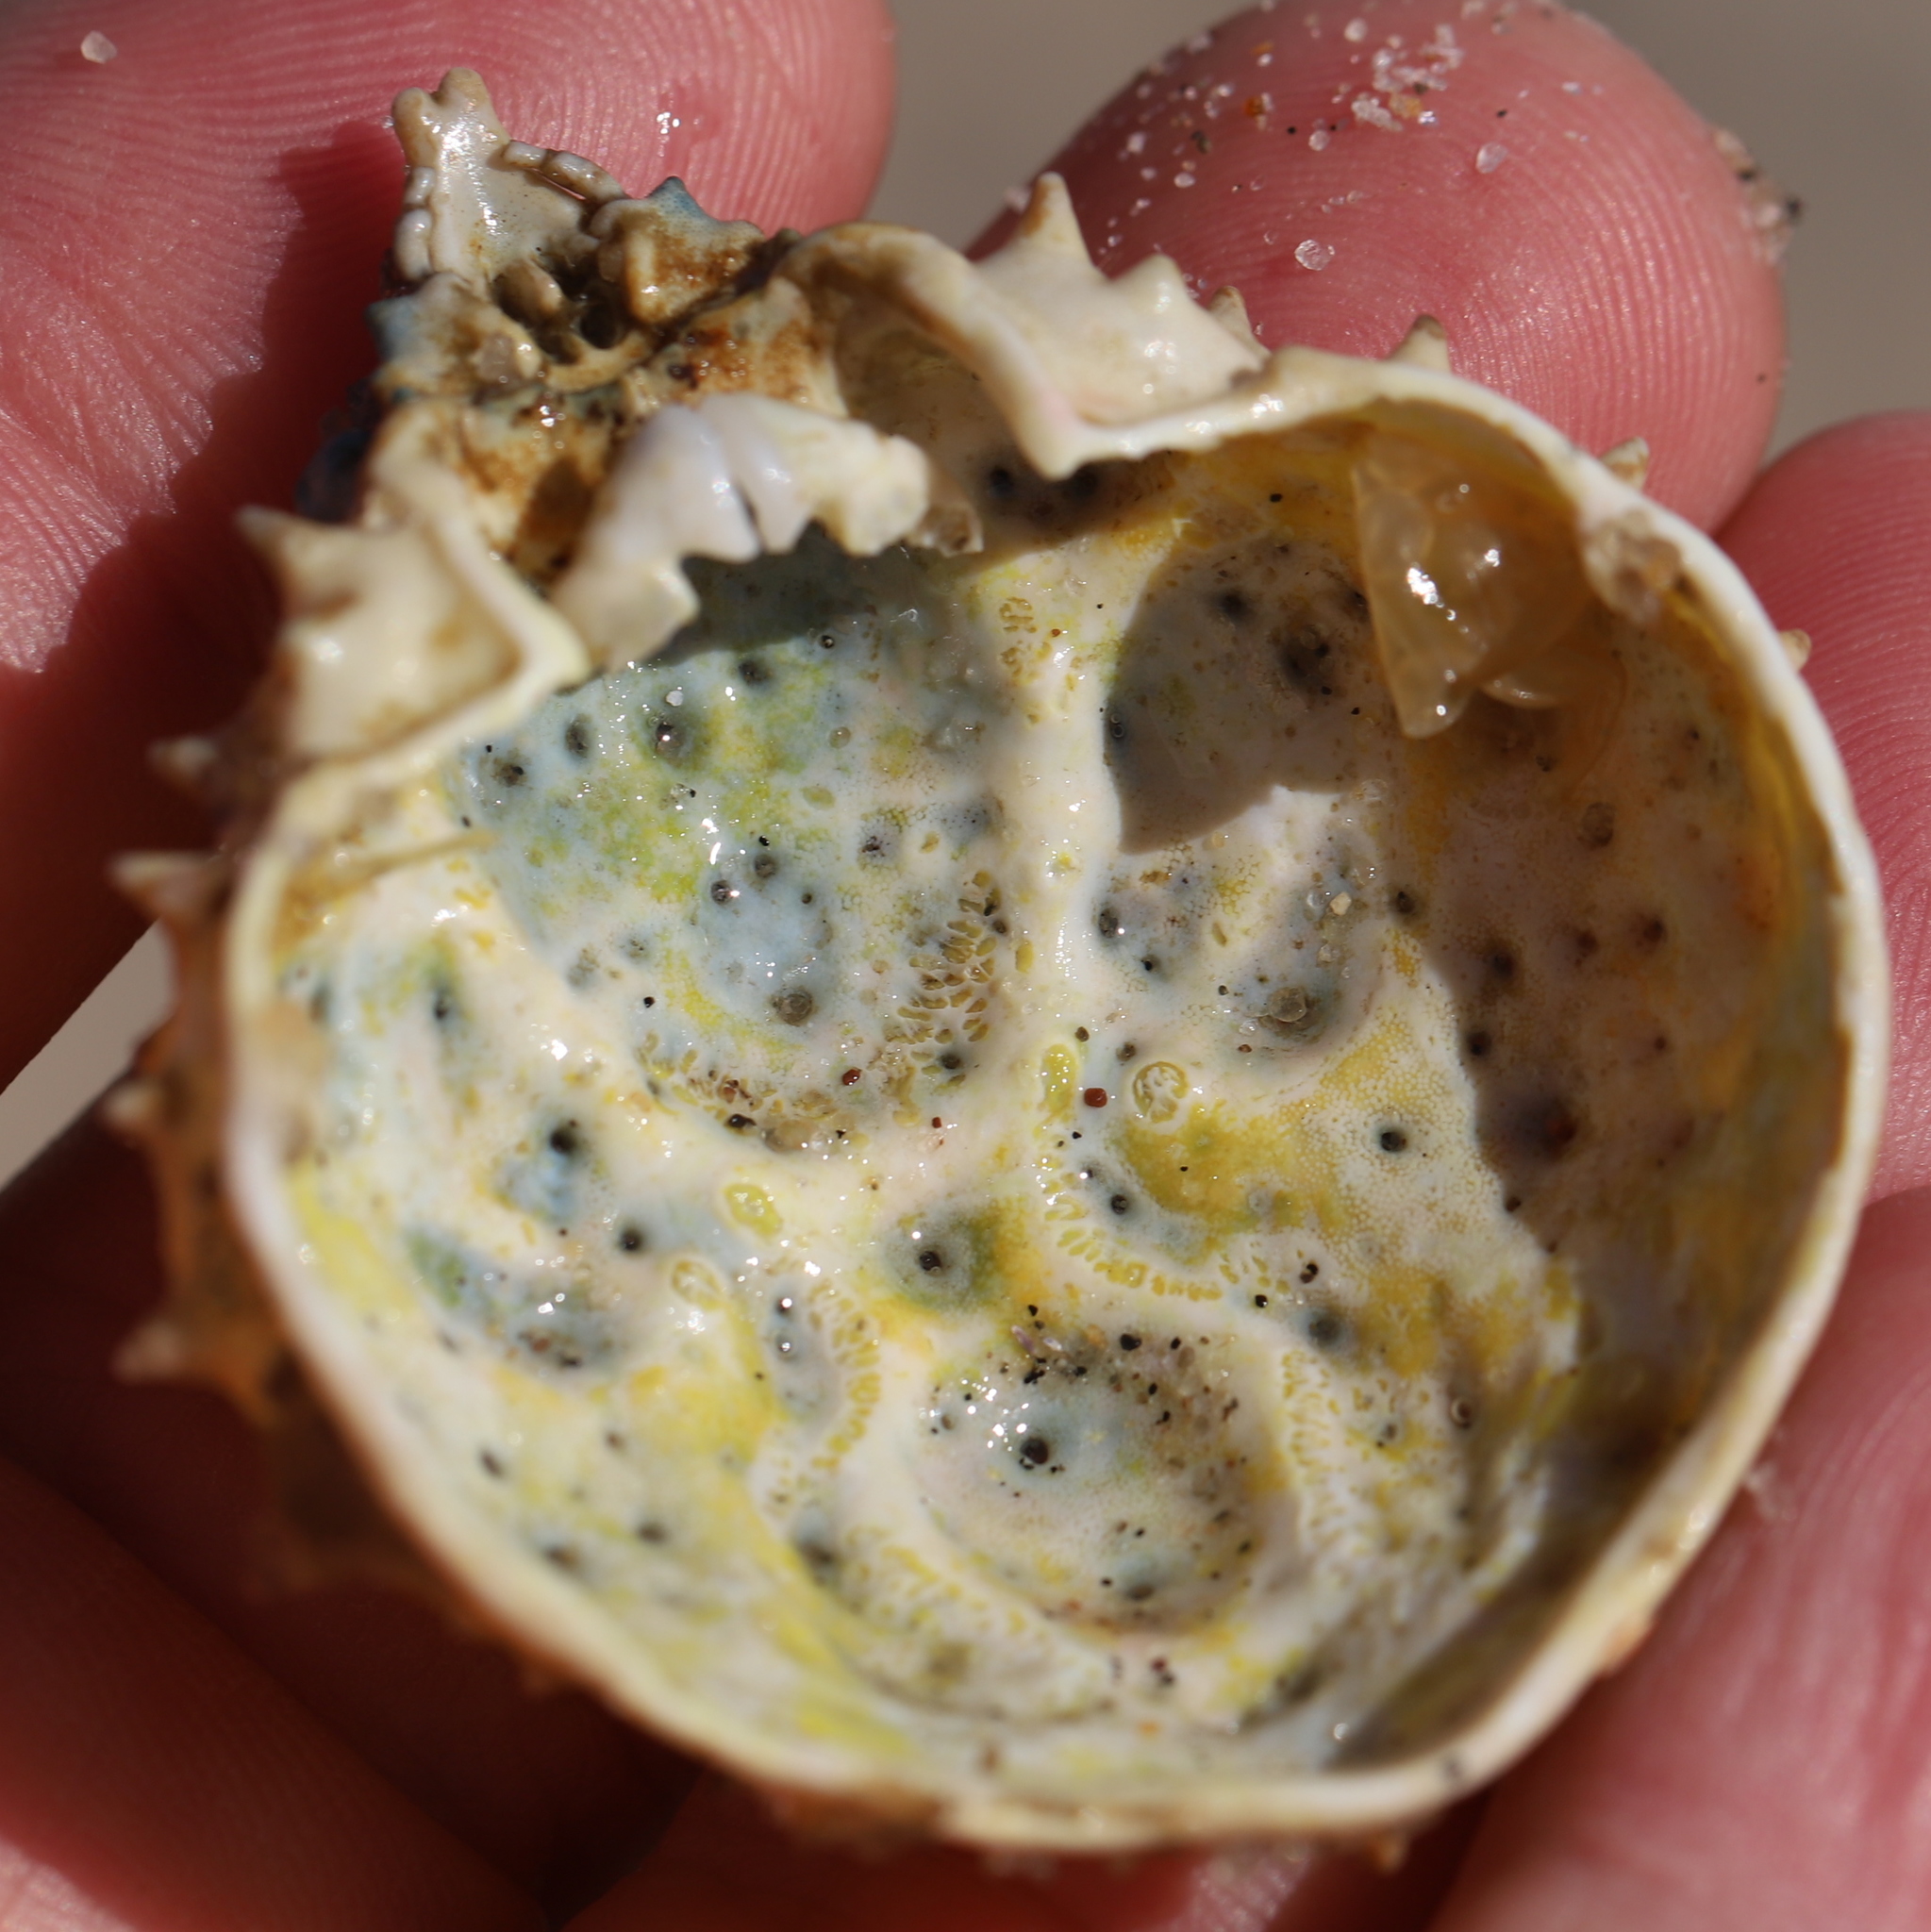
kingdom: Animalia
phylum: Arthropoda
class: Malacostraca
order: Decapoda
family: Epialtidae
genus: Libinia
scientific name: Libinia emarginata
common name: Common spider crab
